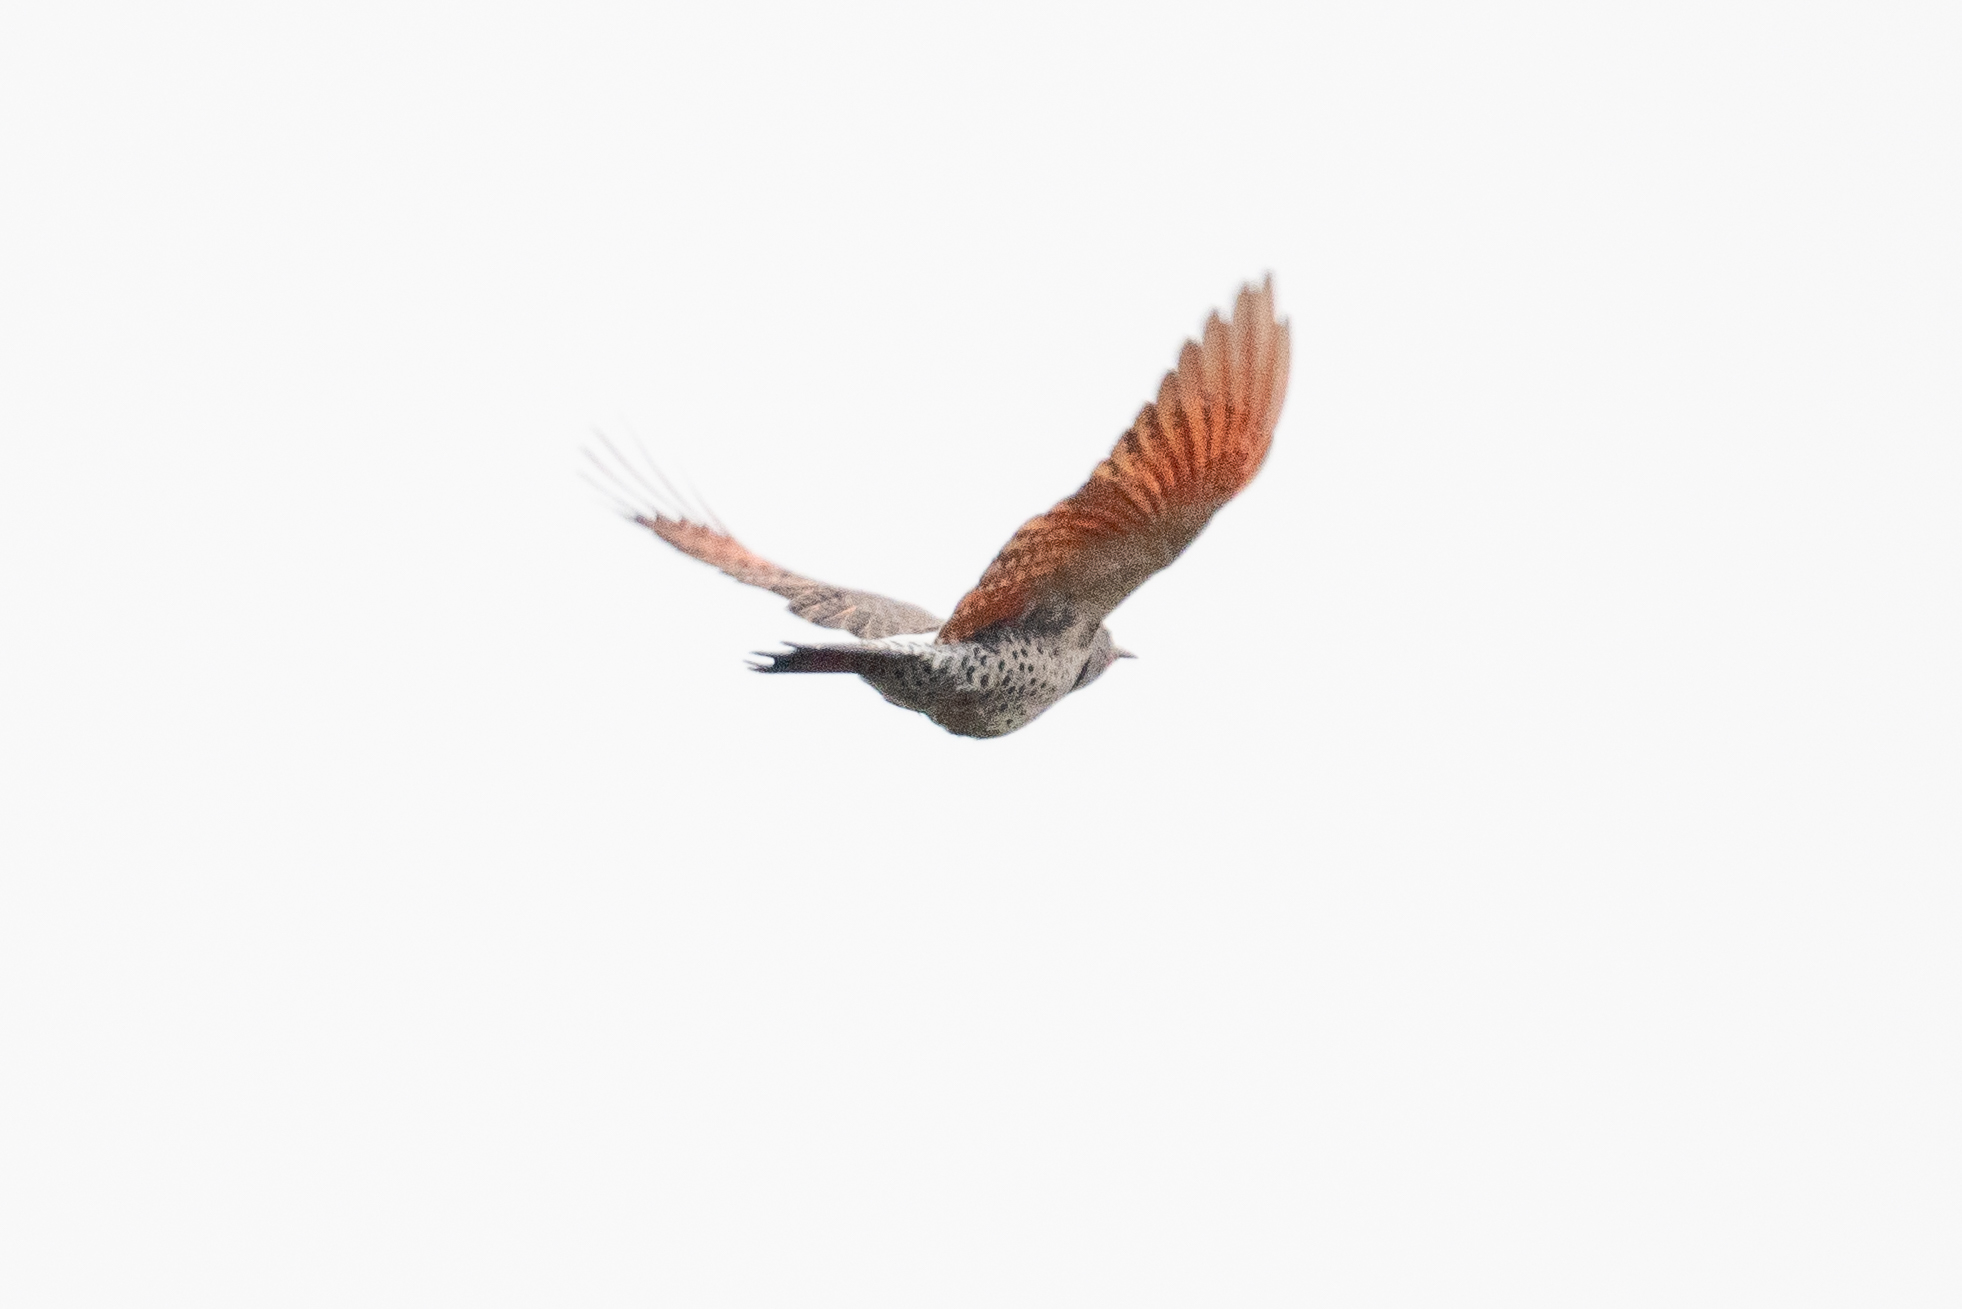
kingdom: Animalia
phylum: Chordata
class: Aves
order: Piciformes
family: Picidae
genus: Colaptes
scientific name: Colaptes auratus
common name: Northern flicker
